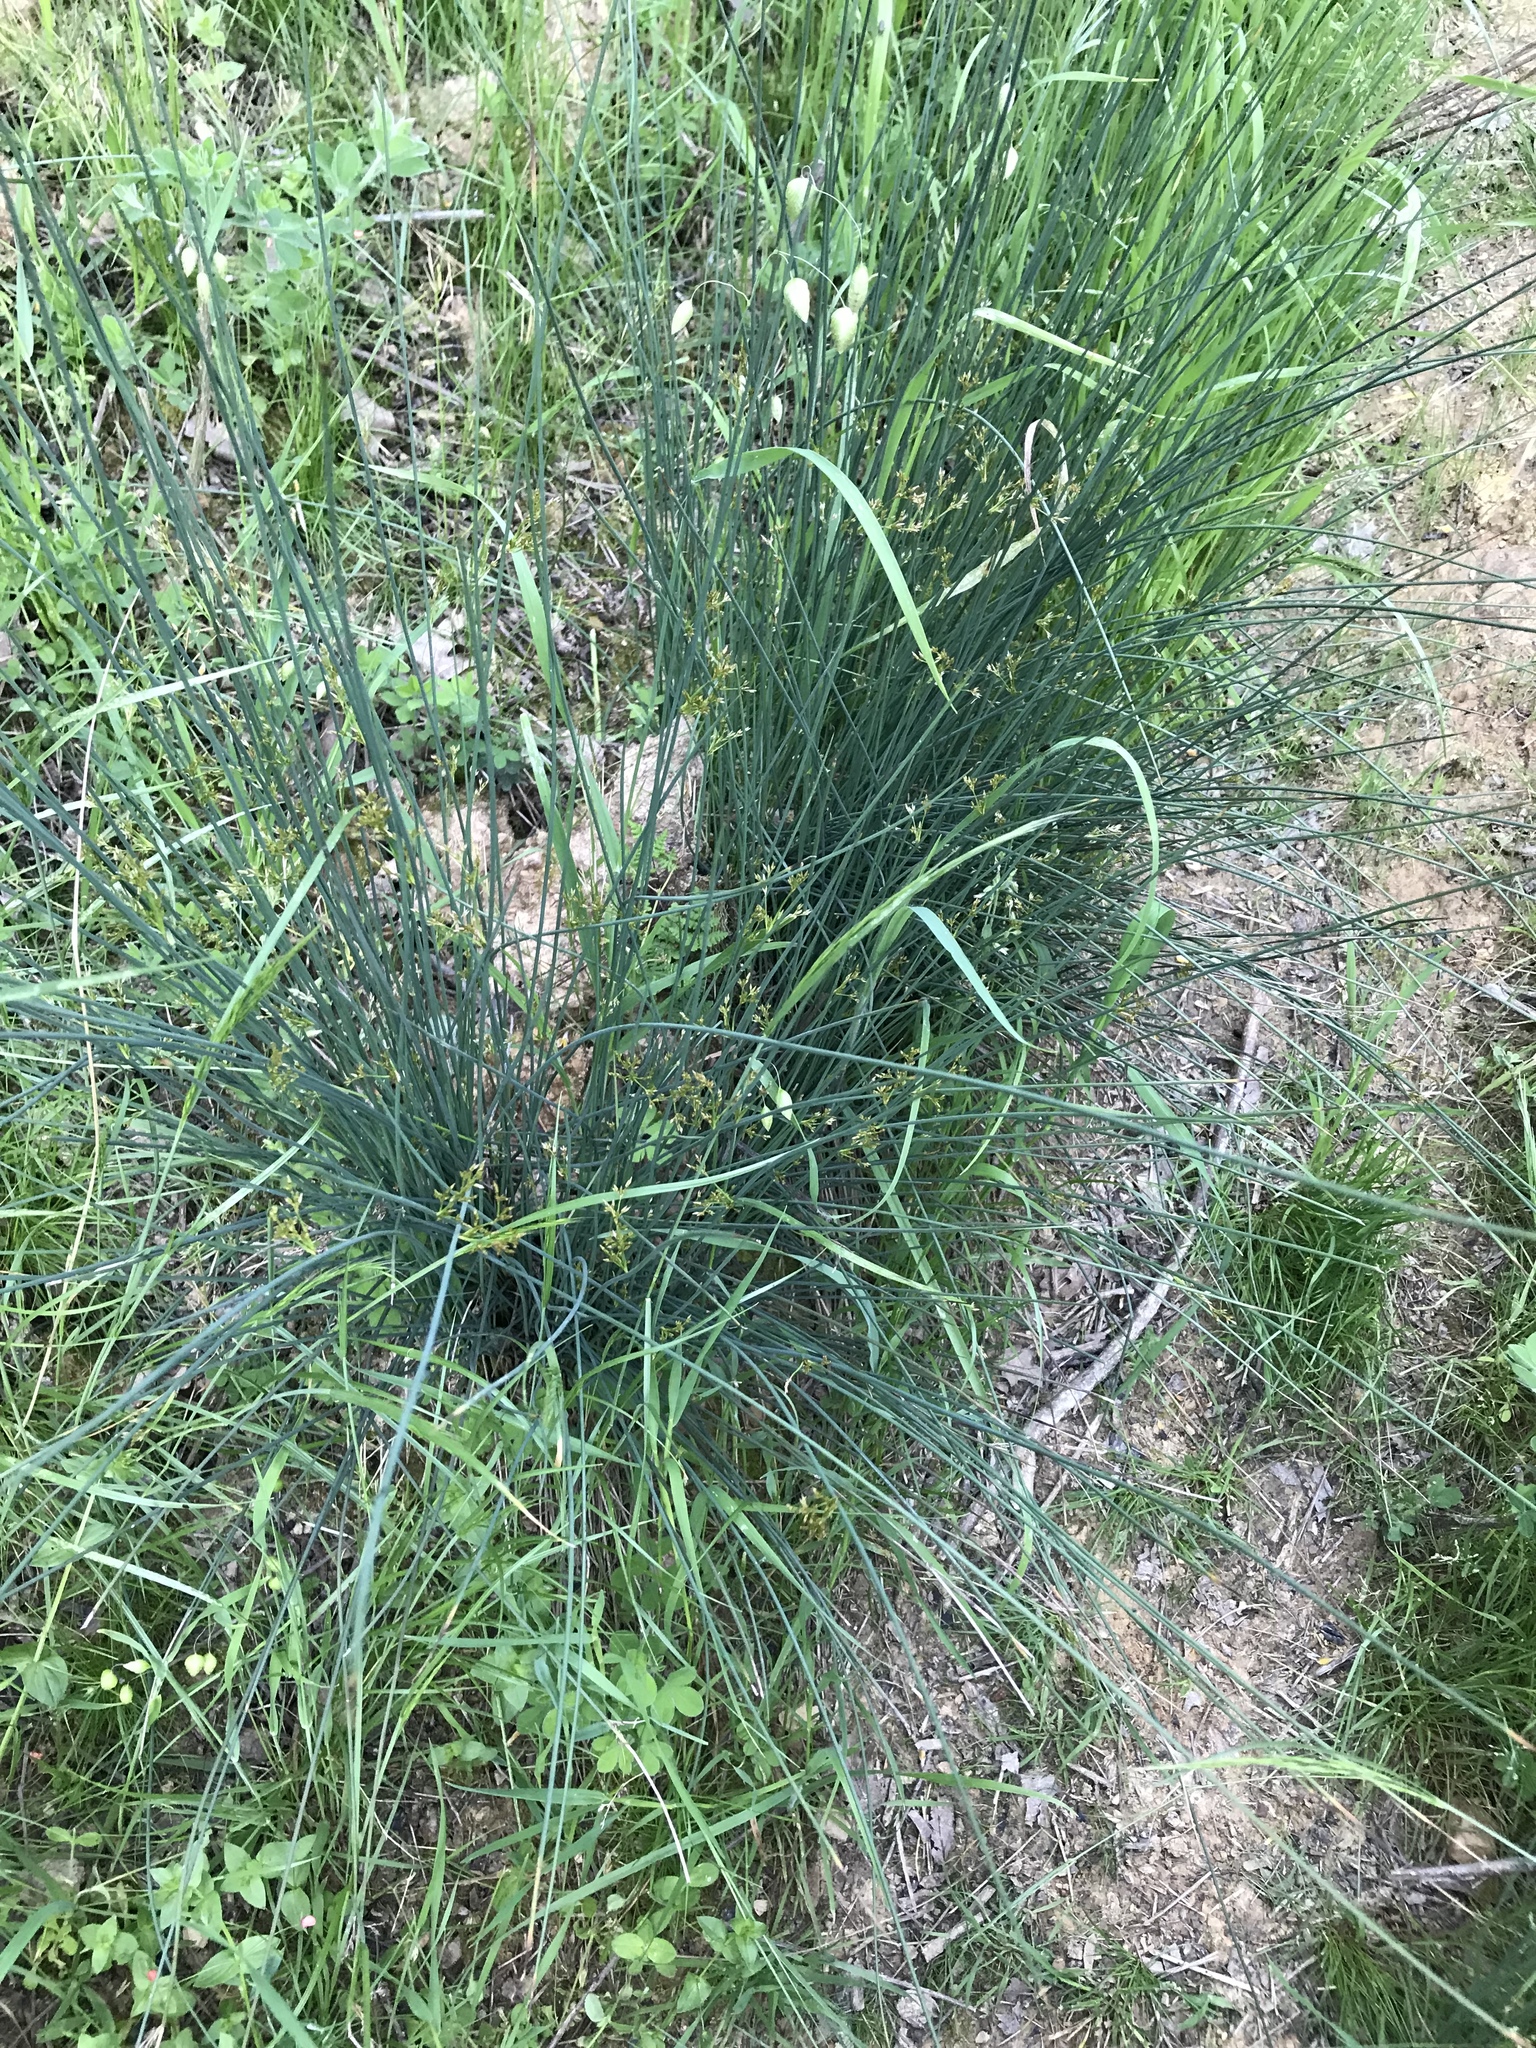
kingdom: Plantae
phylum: Tracheophyta
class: Liliopsida
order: Poales
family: Juncaceae
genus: Juncus
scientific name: Juncus patens
